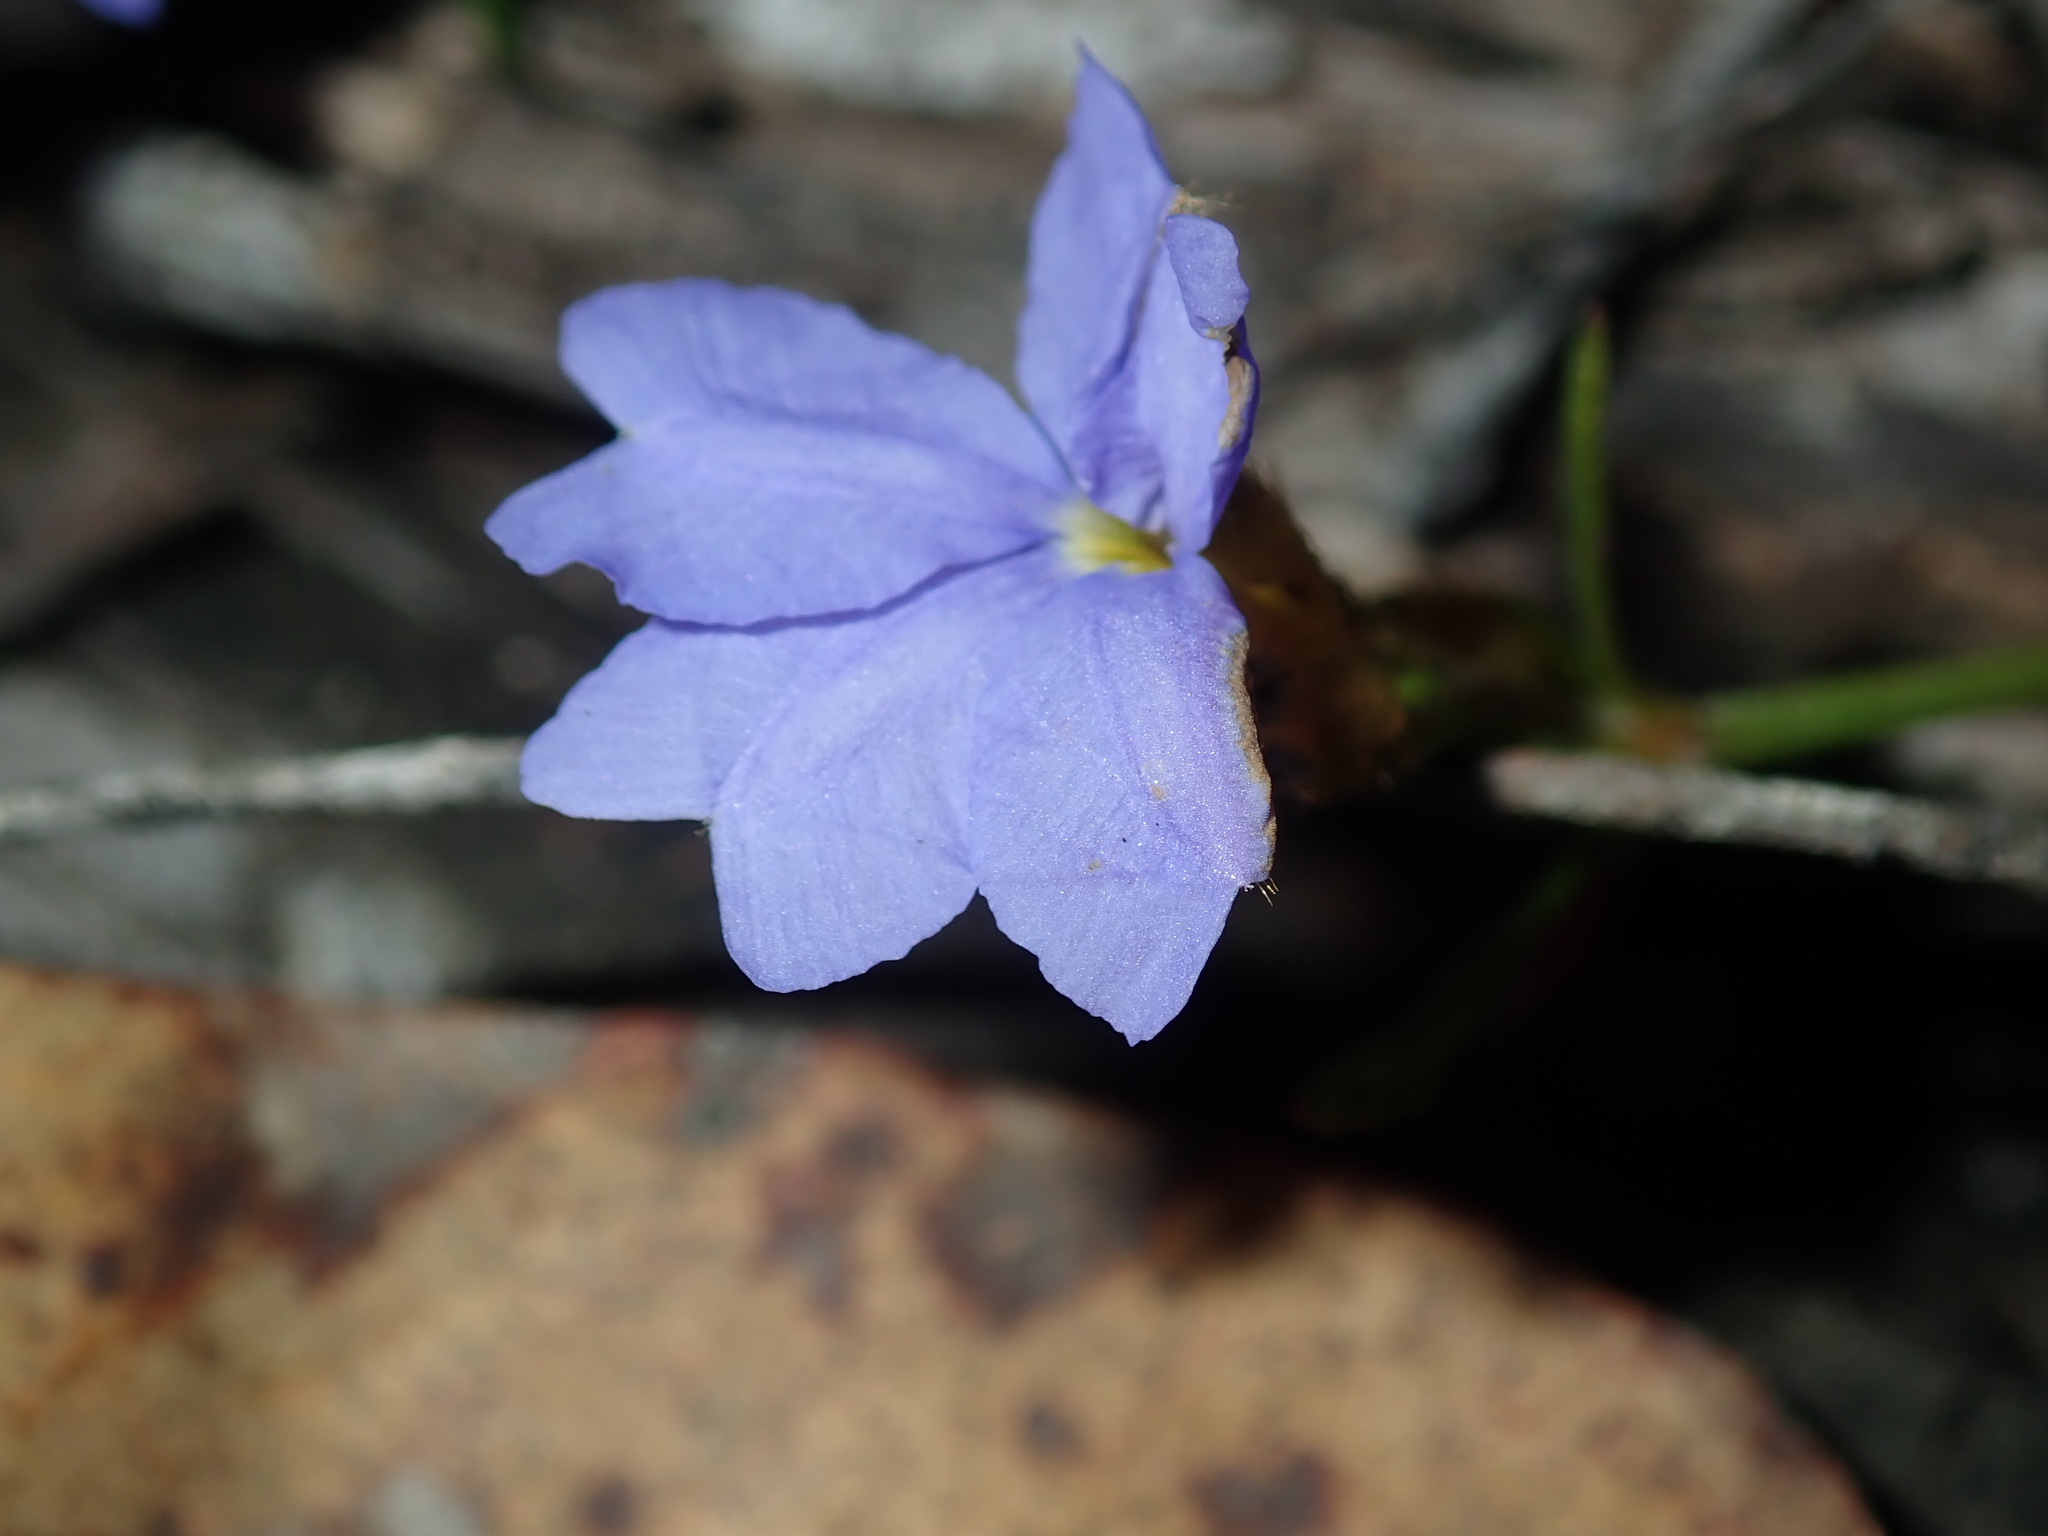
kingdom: Plantae
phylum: Tracheophyta
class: Magnoliopsida
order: Asterales
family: Goodeniaceae
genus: Dampiera
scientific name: Dampiera stricta
